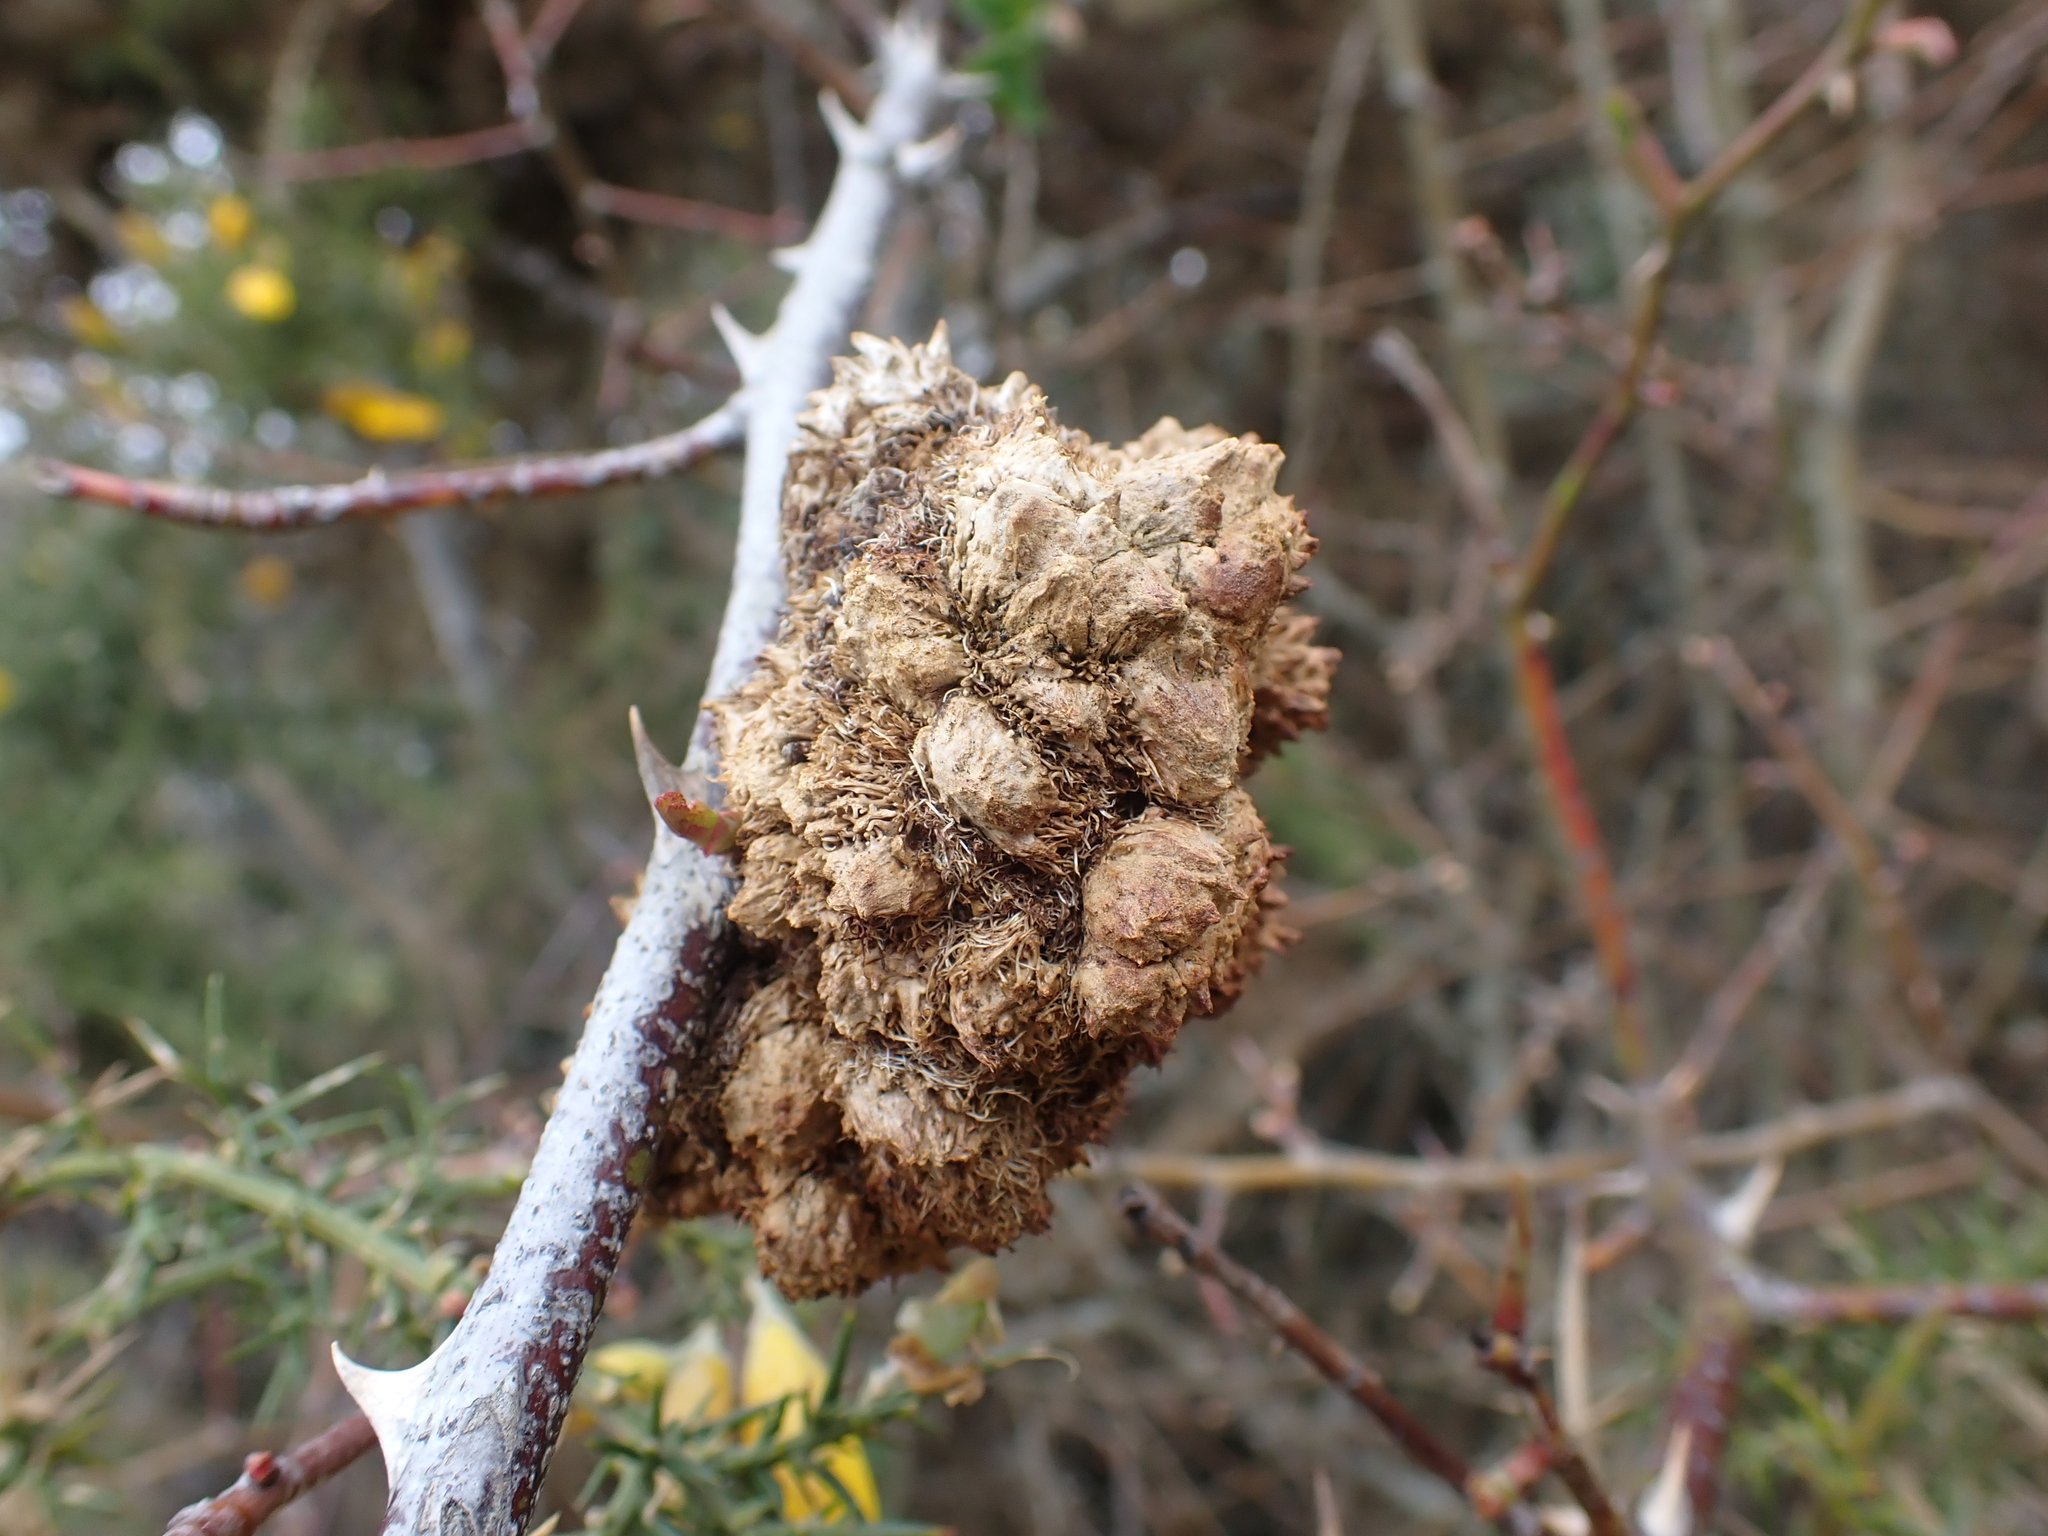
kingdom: Animalia
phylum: Arthropoda
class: Insecta
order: Hymenoptera
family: Cynipidae
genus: Diplolepis
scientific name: Diplolepis rosae
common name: Bedeguar gall
